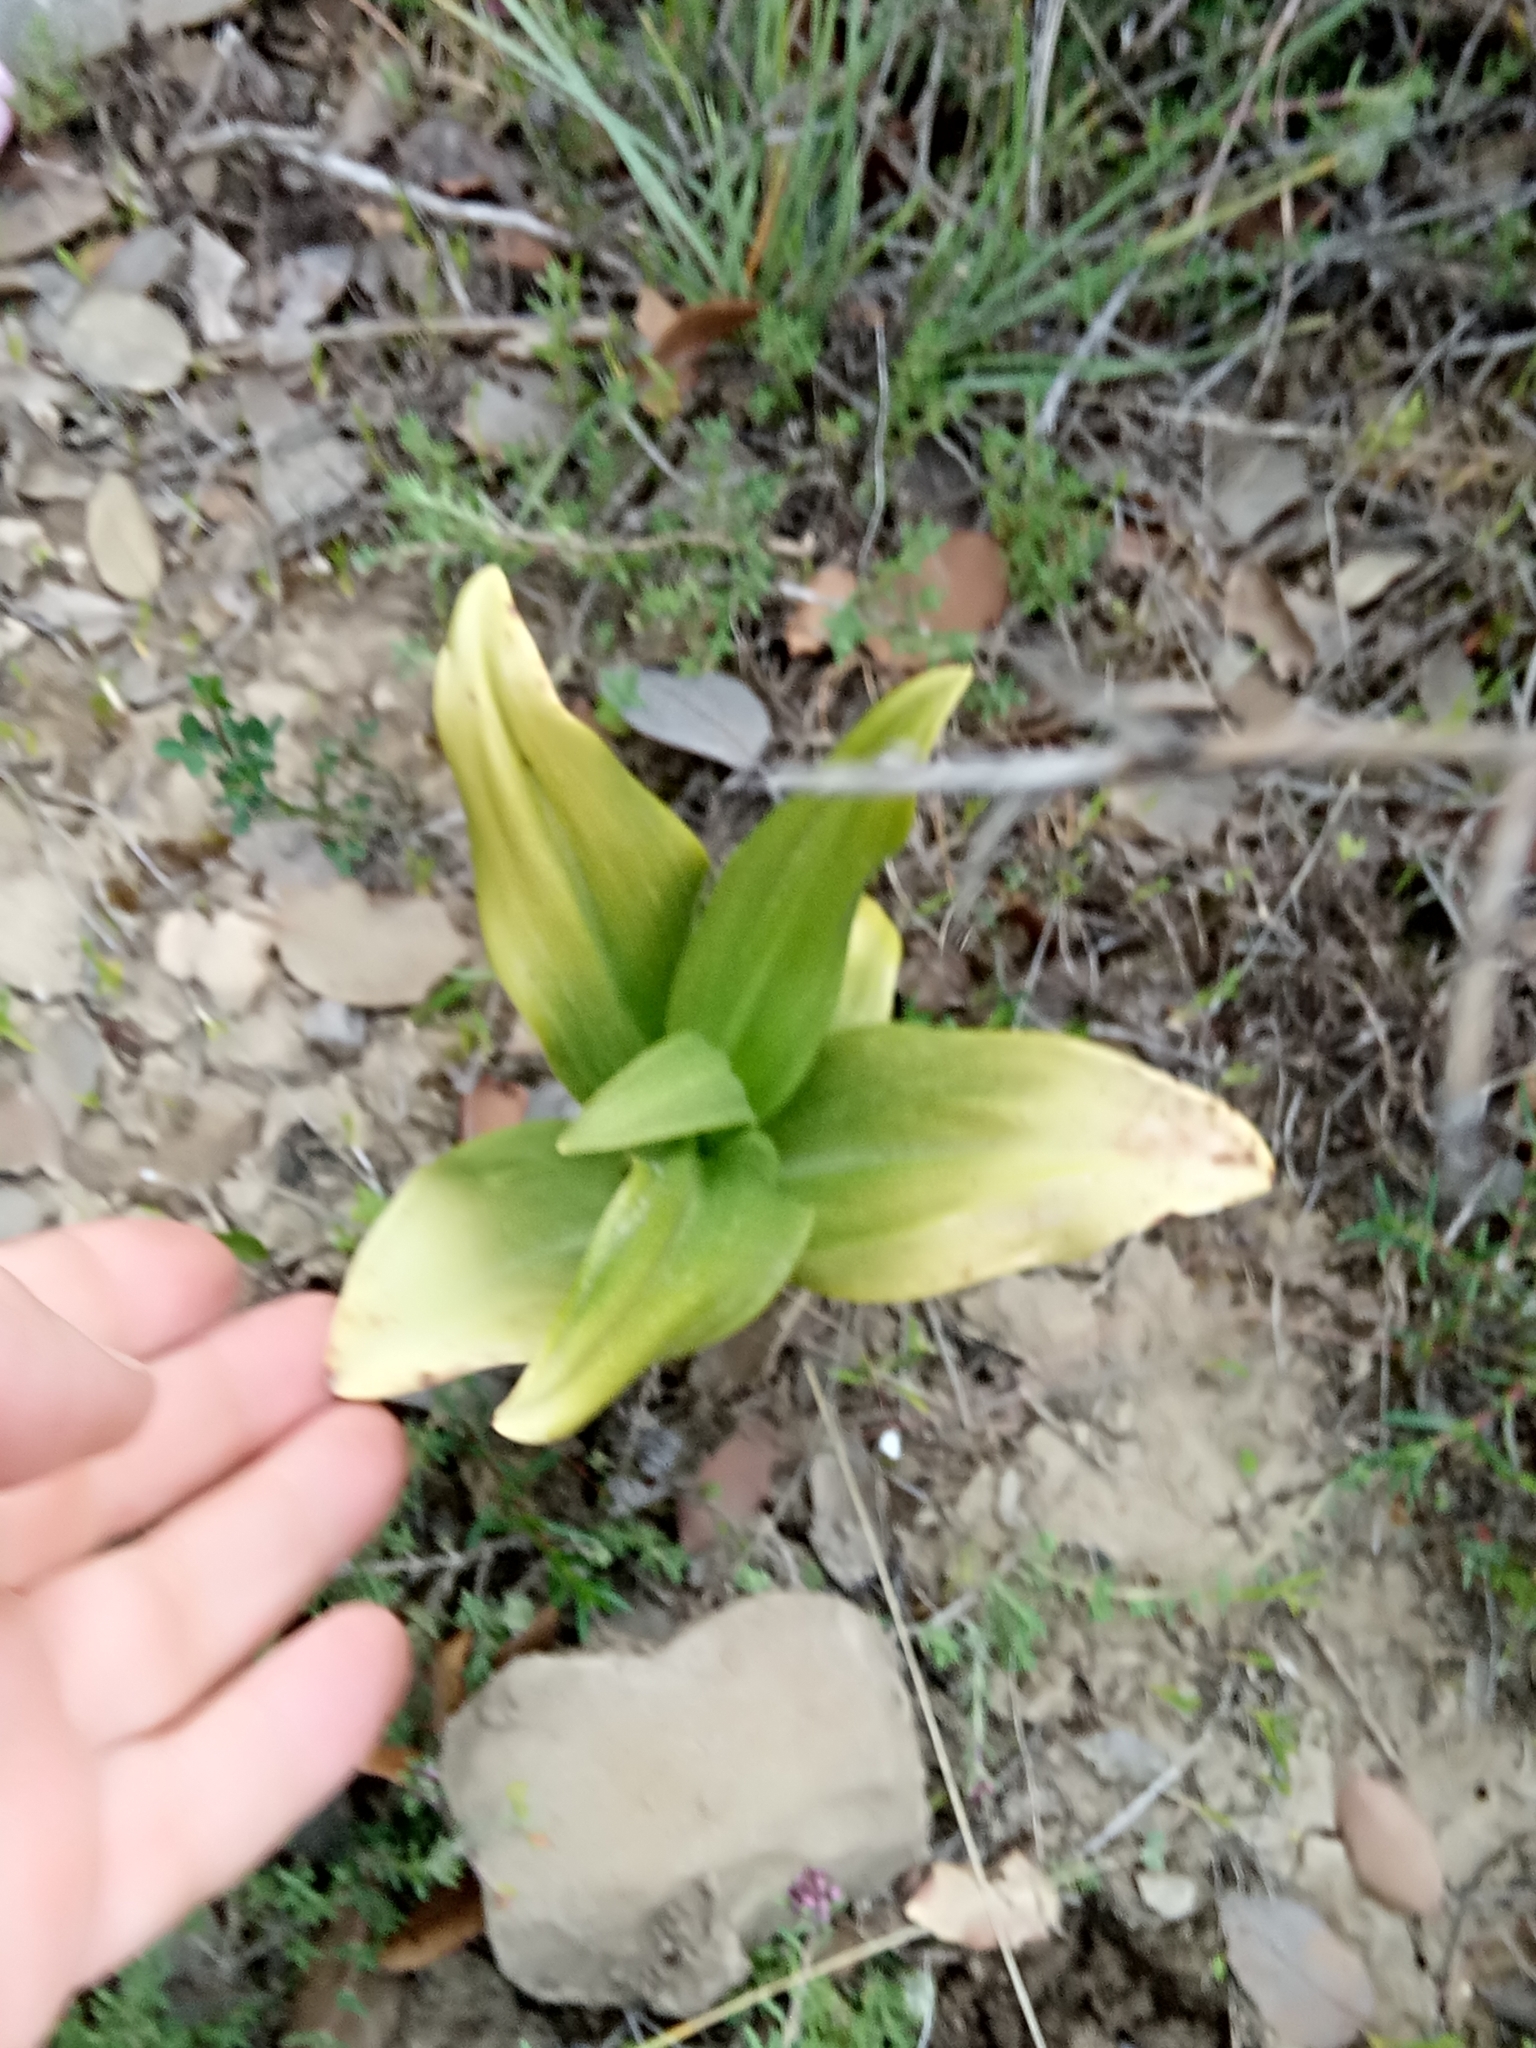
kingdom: Plantae
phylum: Tracheophyta
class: Liliopsida
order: Asparagales
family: Orchidaceae
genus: Himantoglossum
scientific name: Himantoglossum hircinum
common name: Lizard orchid
